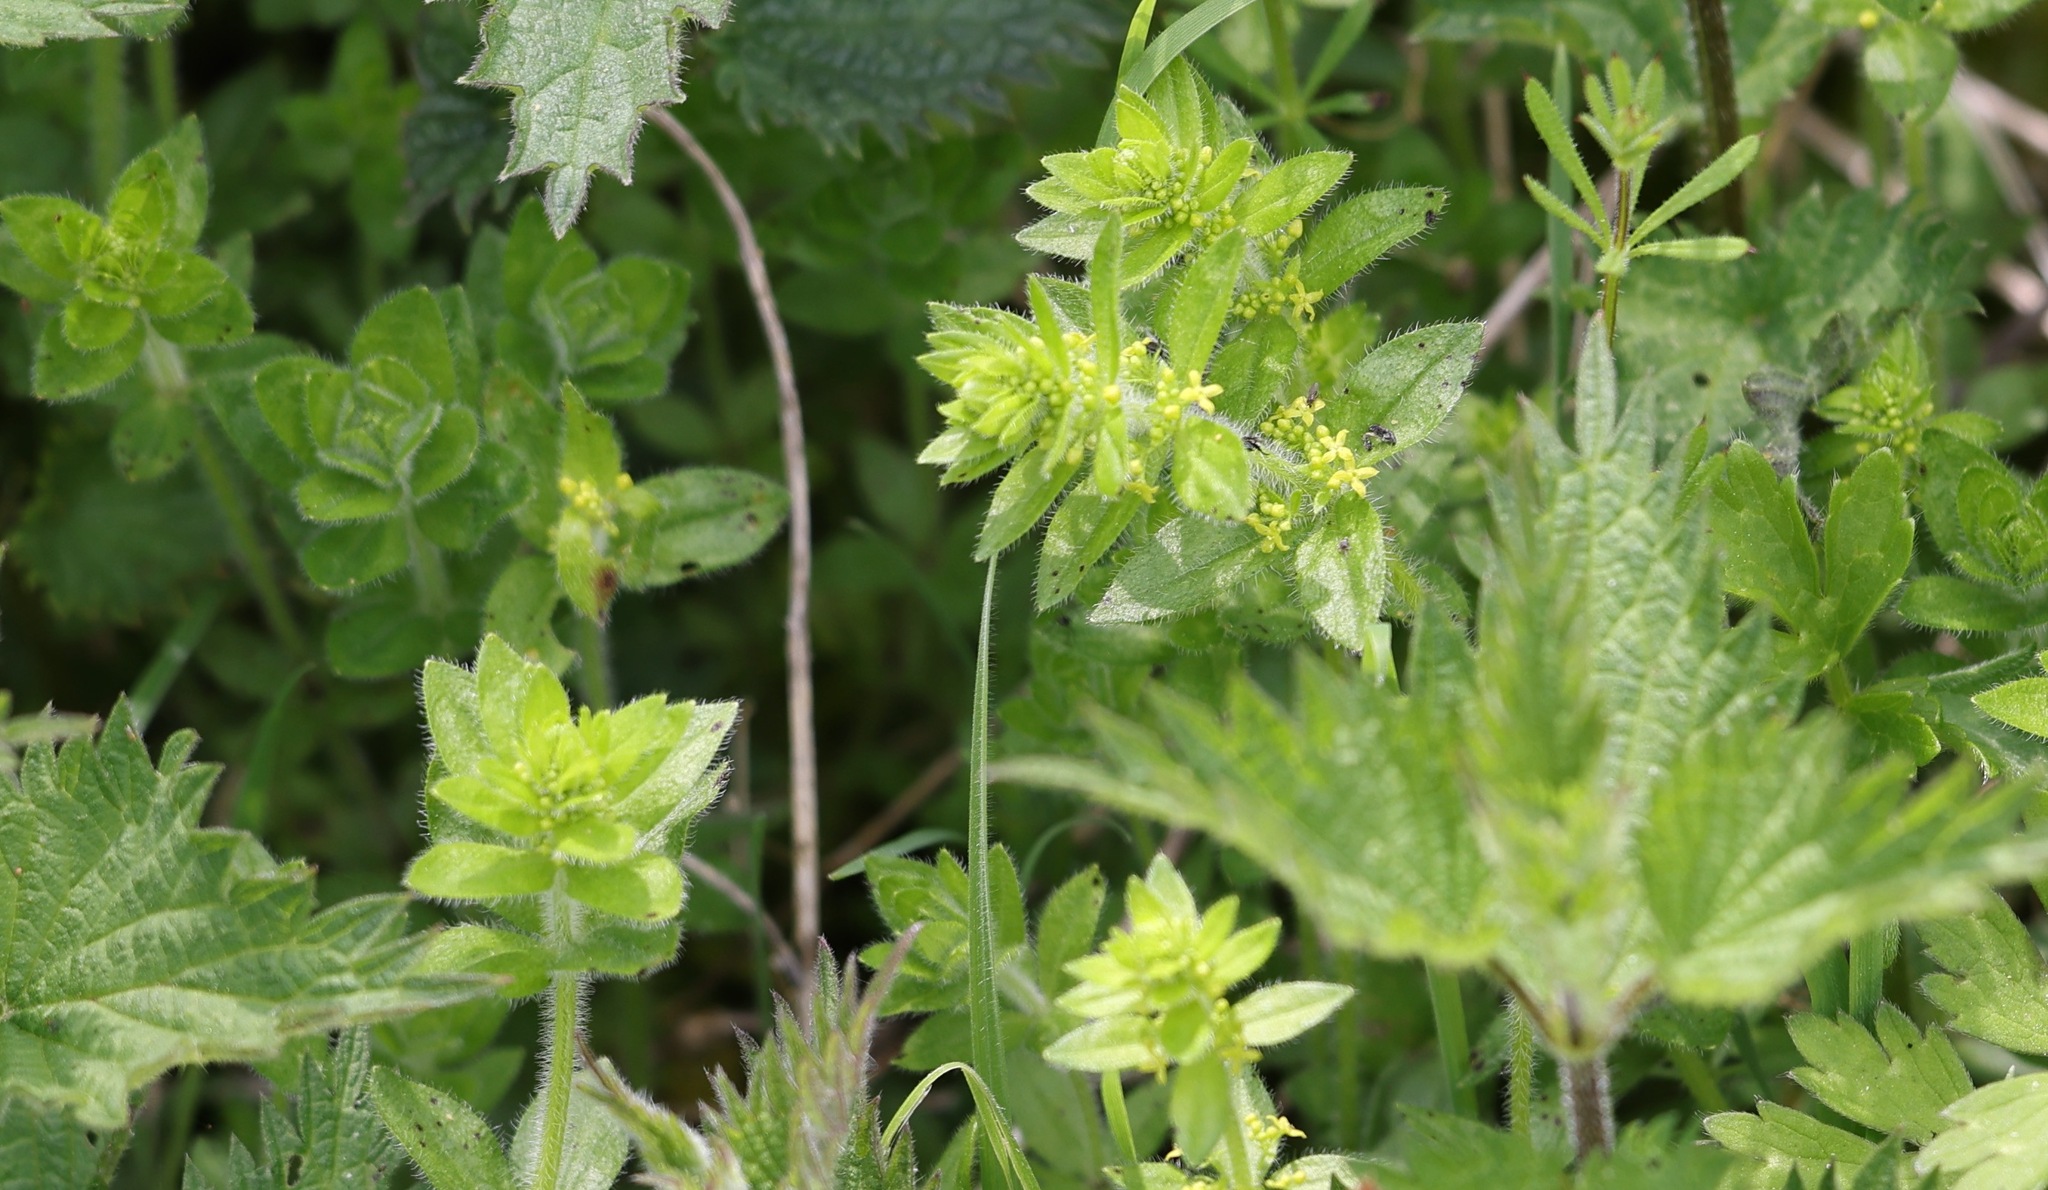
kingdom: Plantae
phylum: Tracheophyta
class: Magnoliopsida
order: Gentianales
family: Rubiaceae
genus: Cruciata
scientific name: Cruciata laevipes
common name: Crosswort
